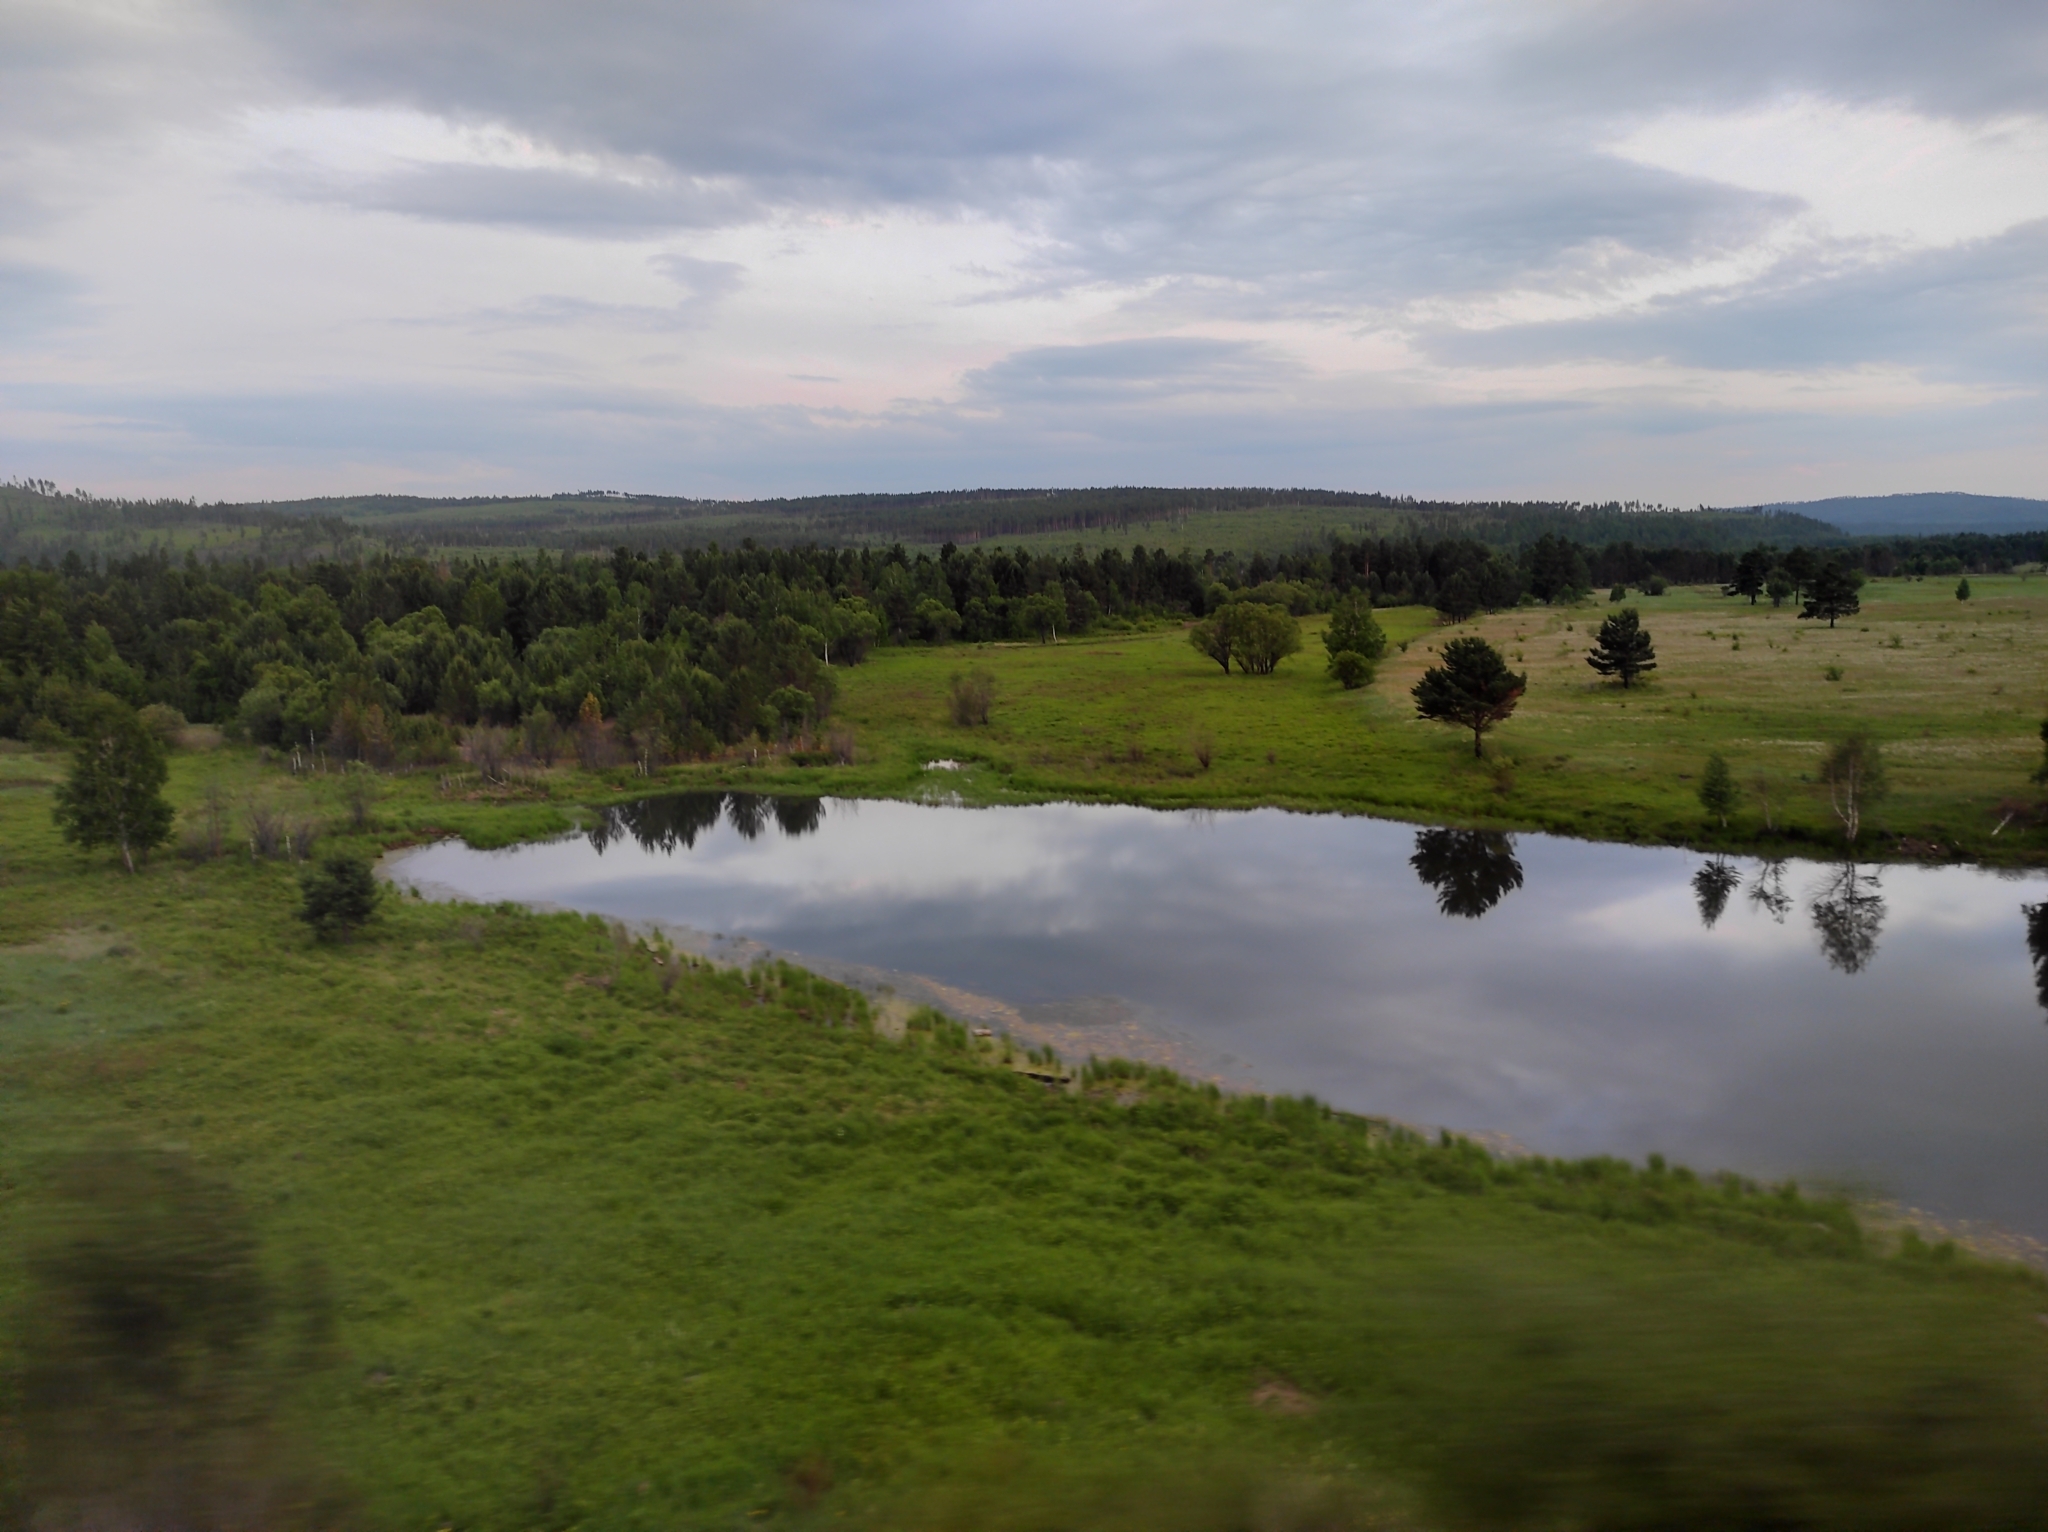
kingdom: Plantae
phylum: Tracheophyta
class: Magnoliopsida
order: Fagales
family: Betulaceae
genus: Betula
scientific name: Betula pendula
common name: Silver birch
